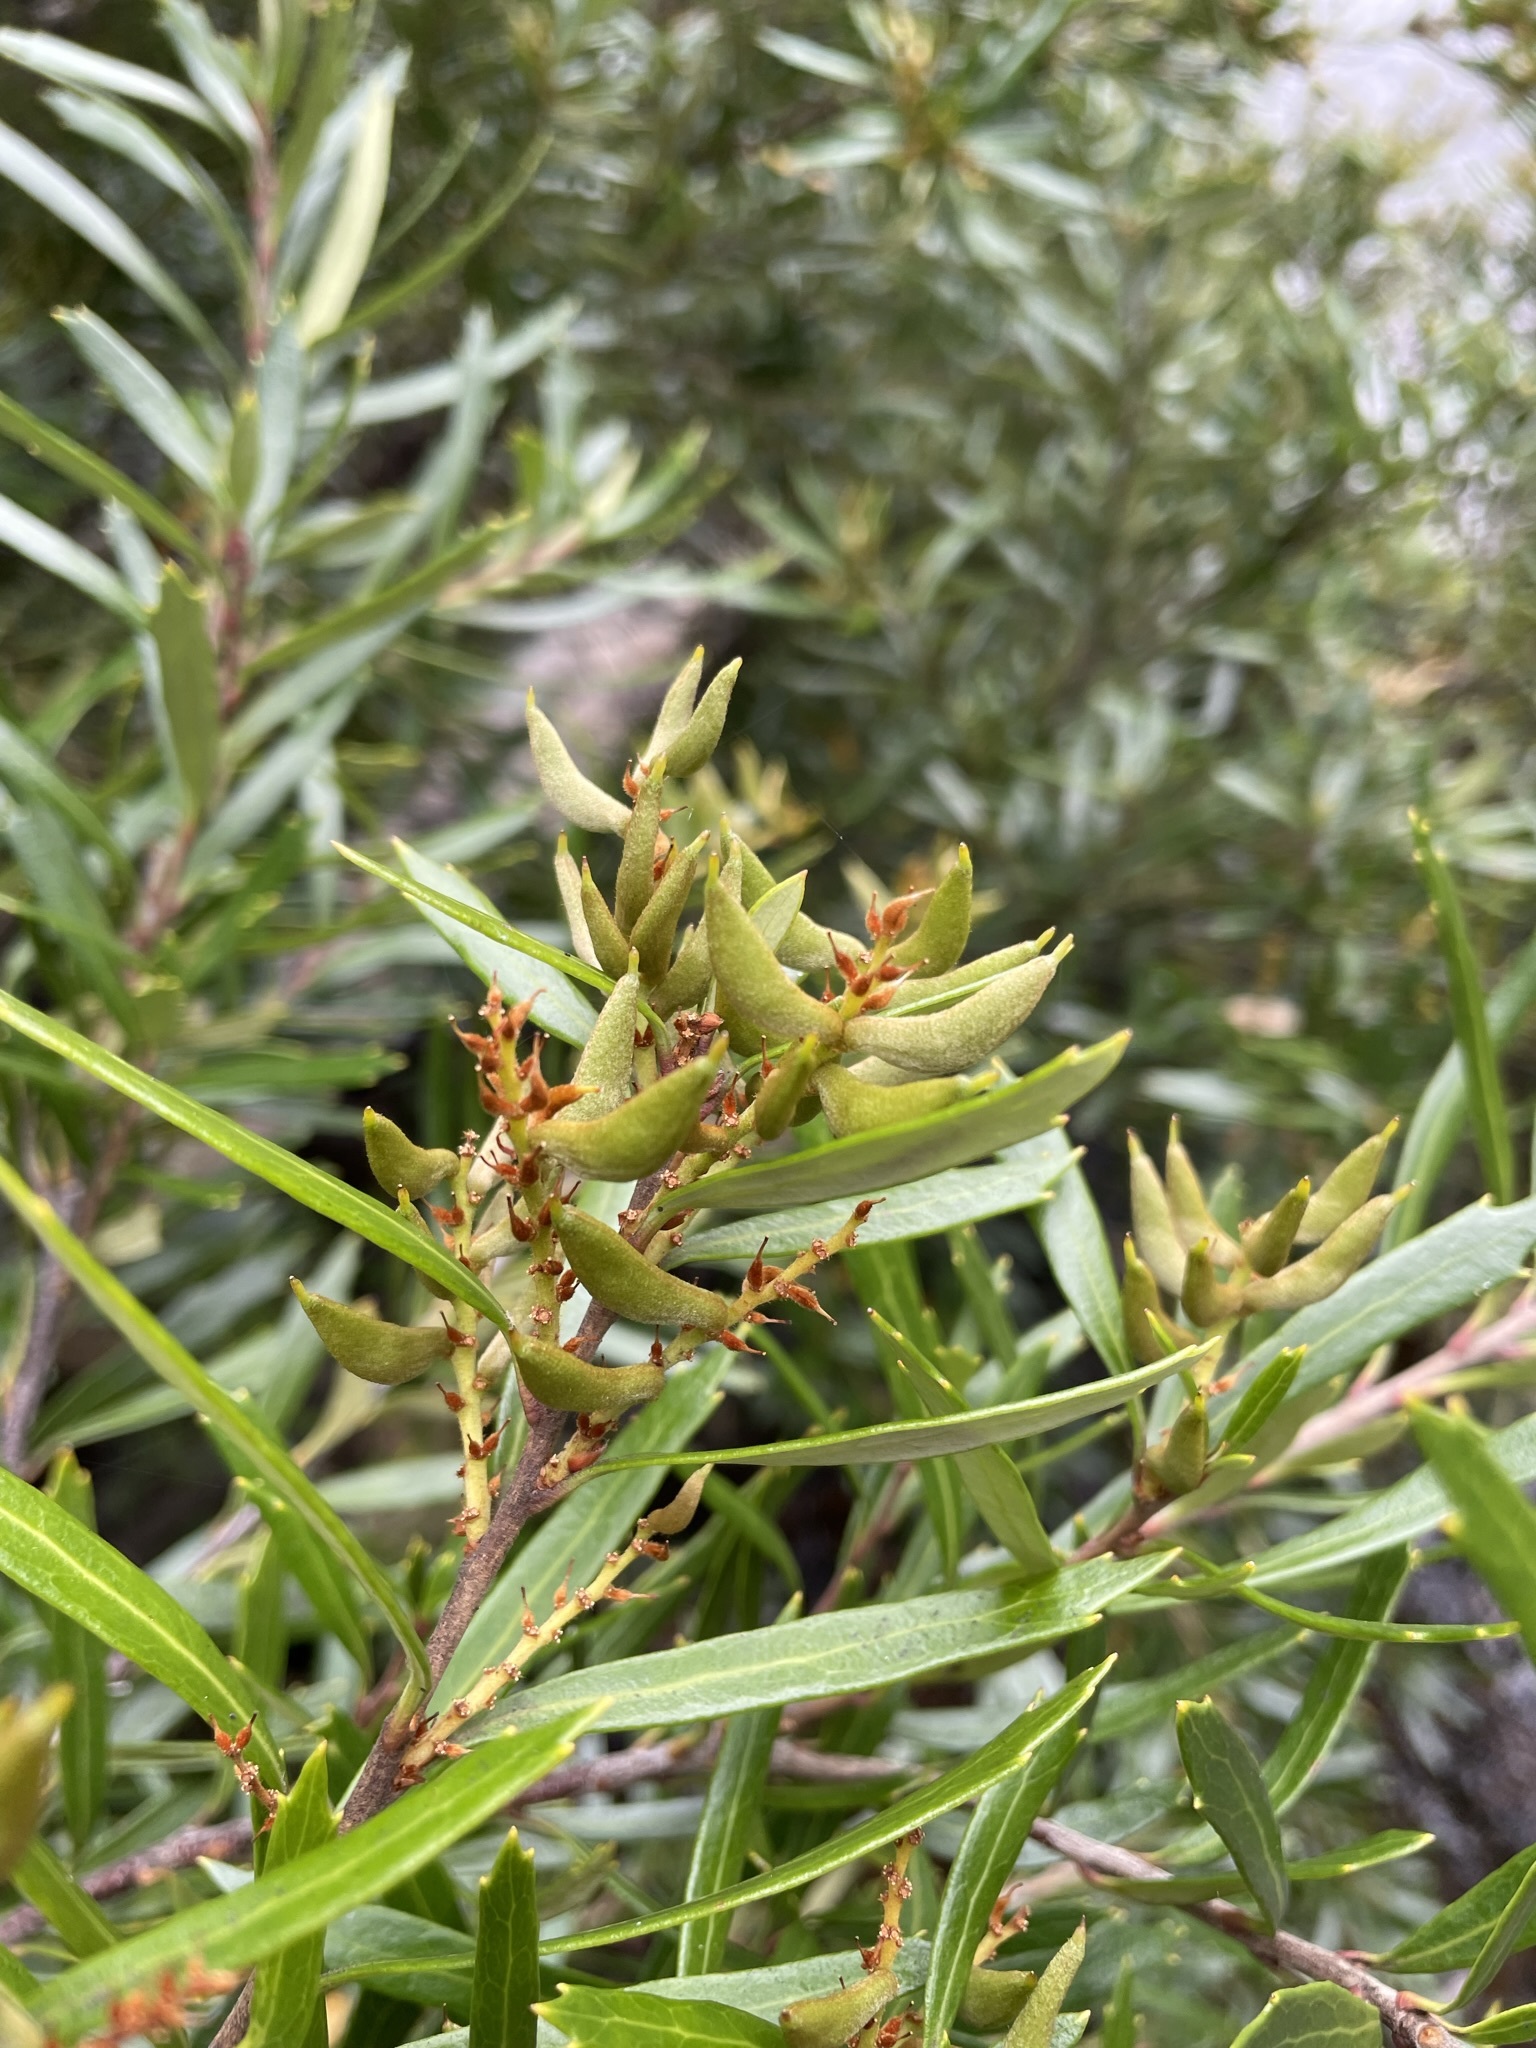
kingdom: Plantae
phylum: Tracheophyta
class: Magnoliopsida
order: Proteales
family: Proteaceae
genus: Orites
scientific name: Orites diversifolius
